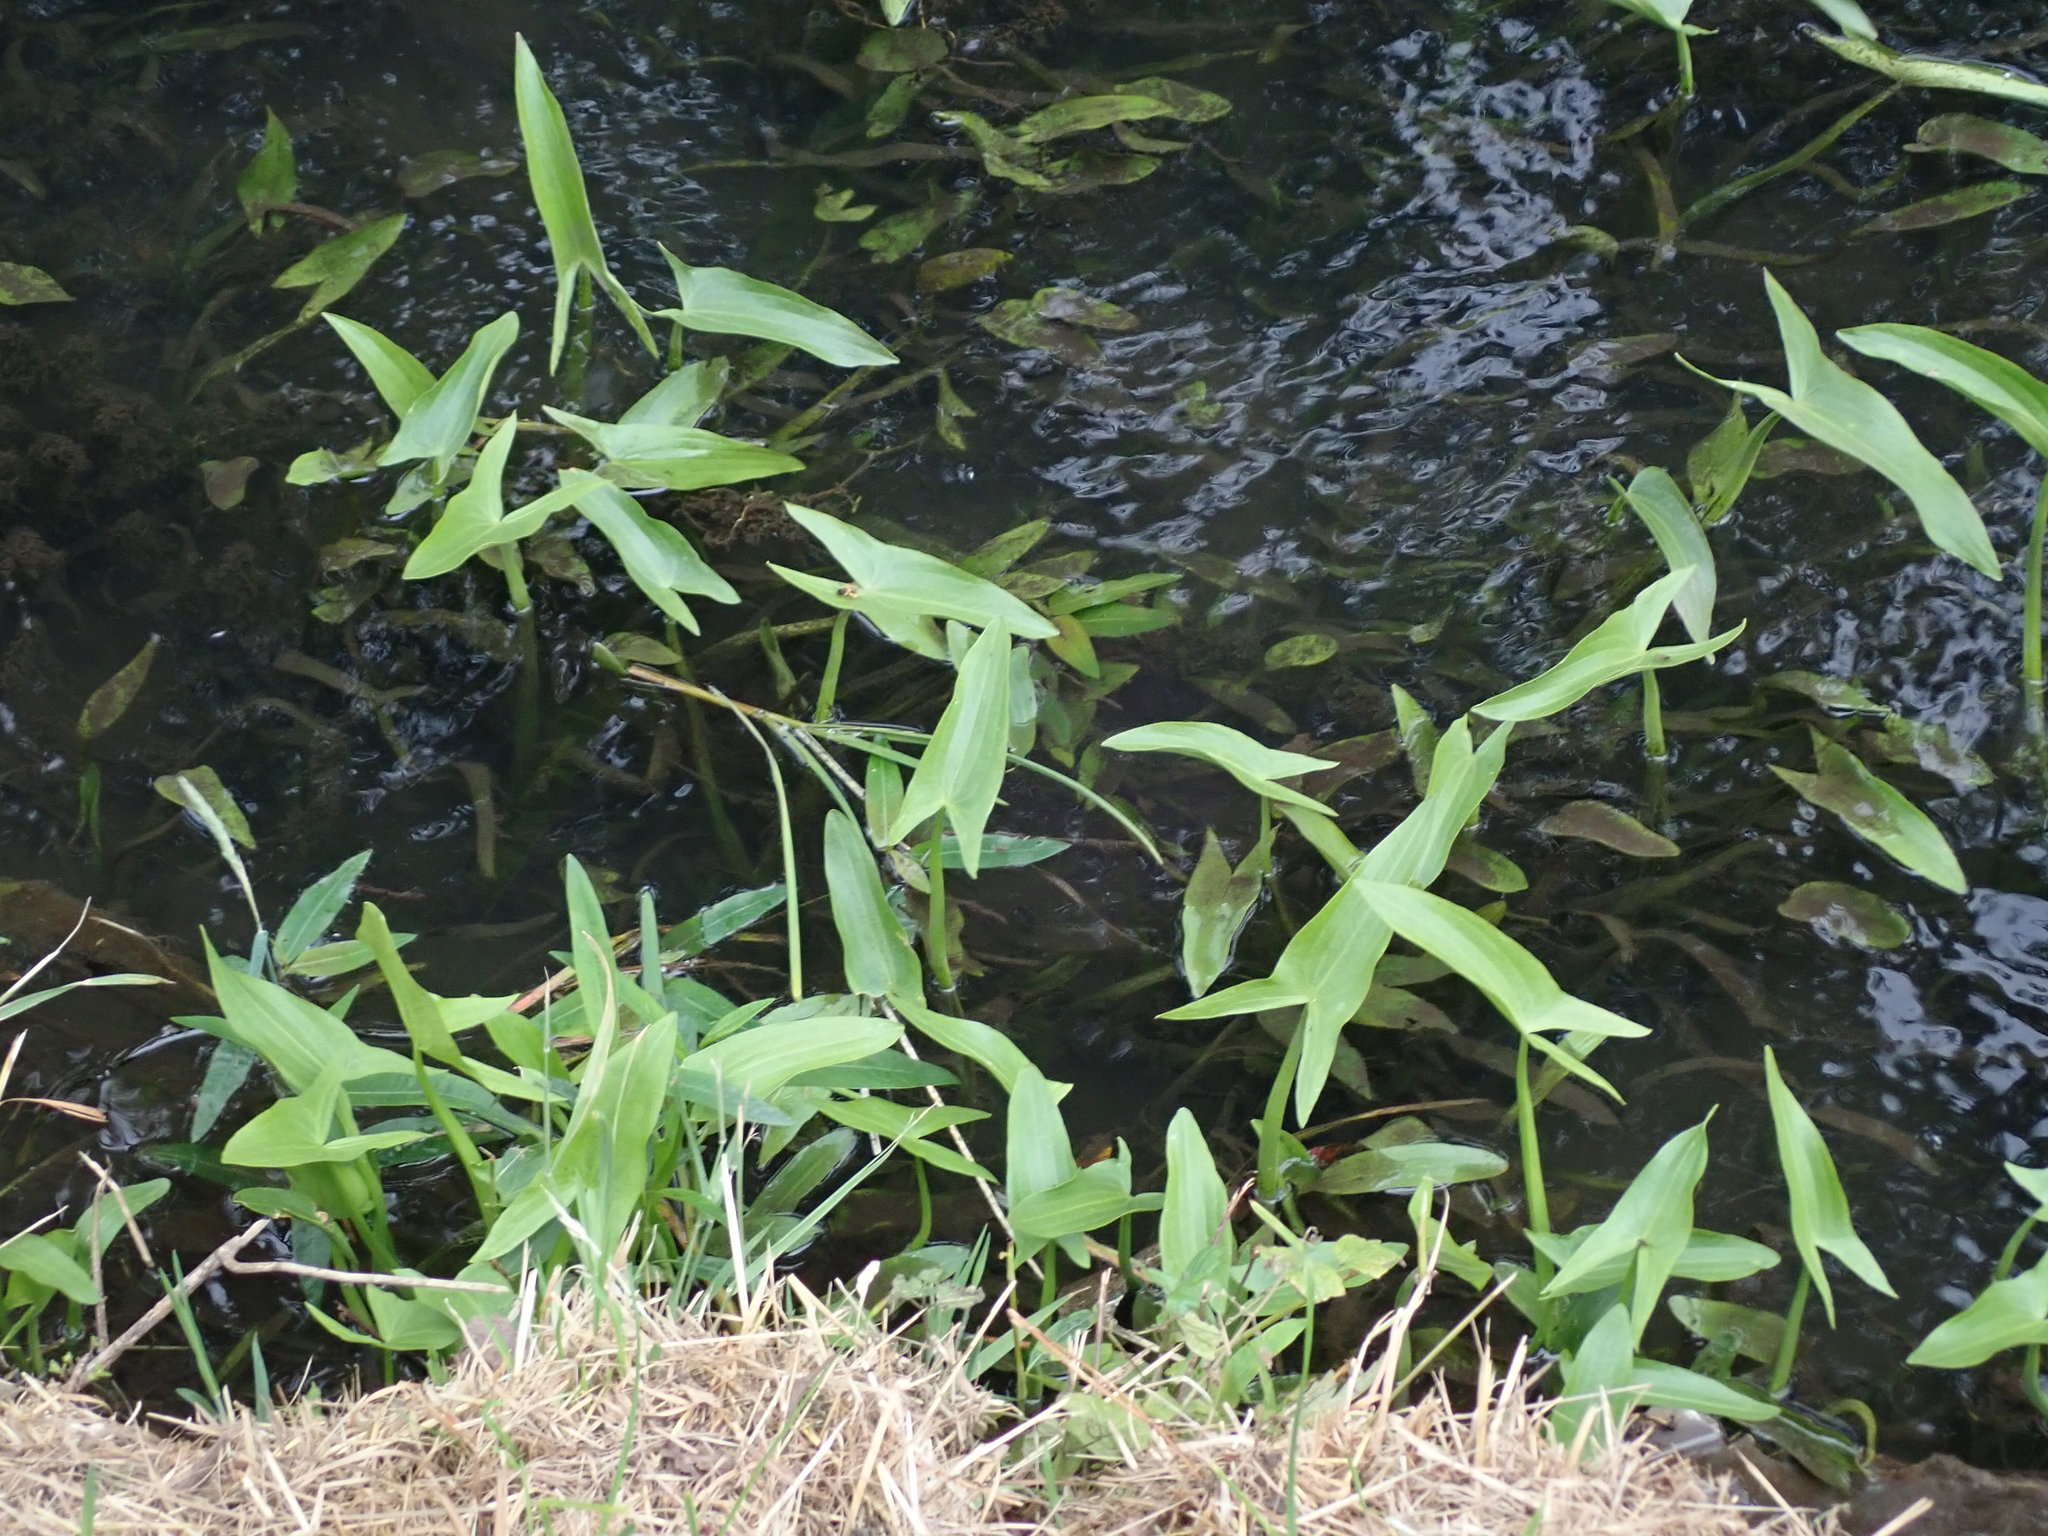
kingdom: Plantae
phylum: Tracheophyta
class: Liliopsida
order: Alismatales
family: Alismataceae
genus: Sagittaria
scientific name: Sagittaria sagittifolia
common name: Arrowhead
